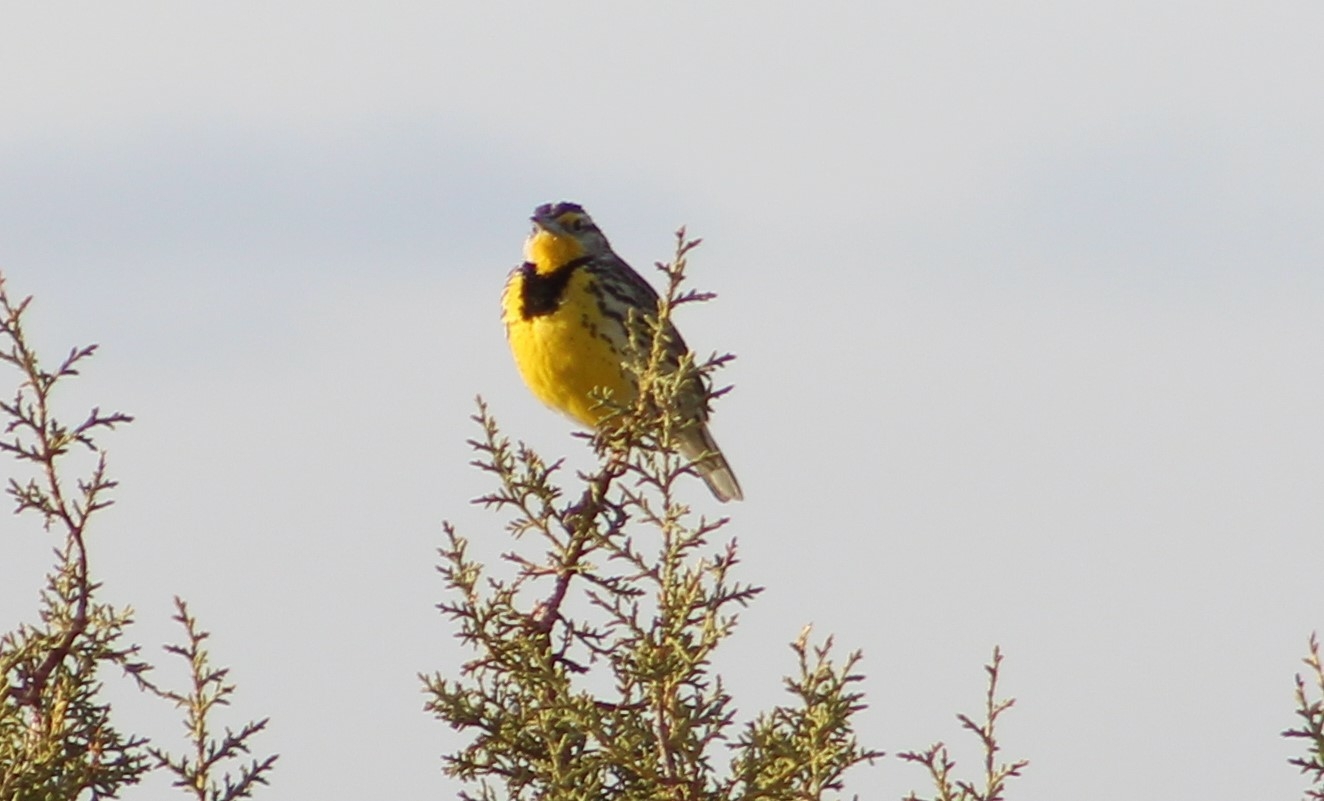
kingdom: Animalia
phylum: Chordata
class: Aves
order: Passeriformes
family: Icteridae
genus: Sturnella
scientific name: Sturnella neglecta
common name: Western meadowlark
